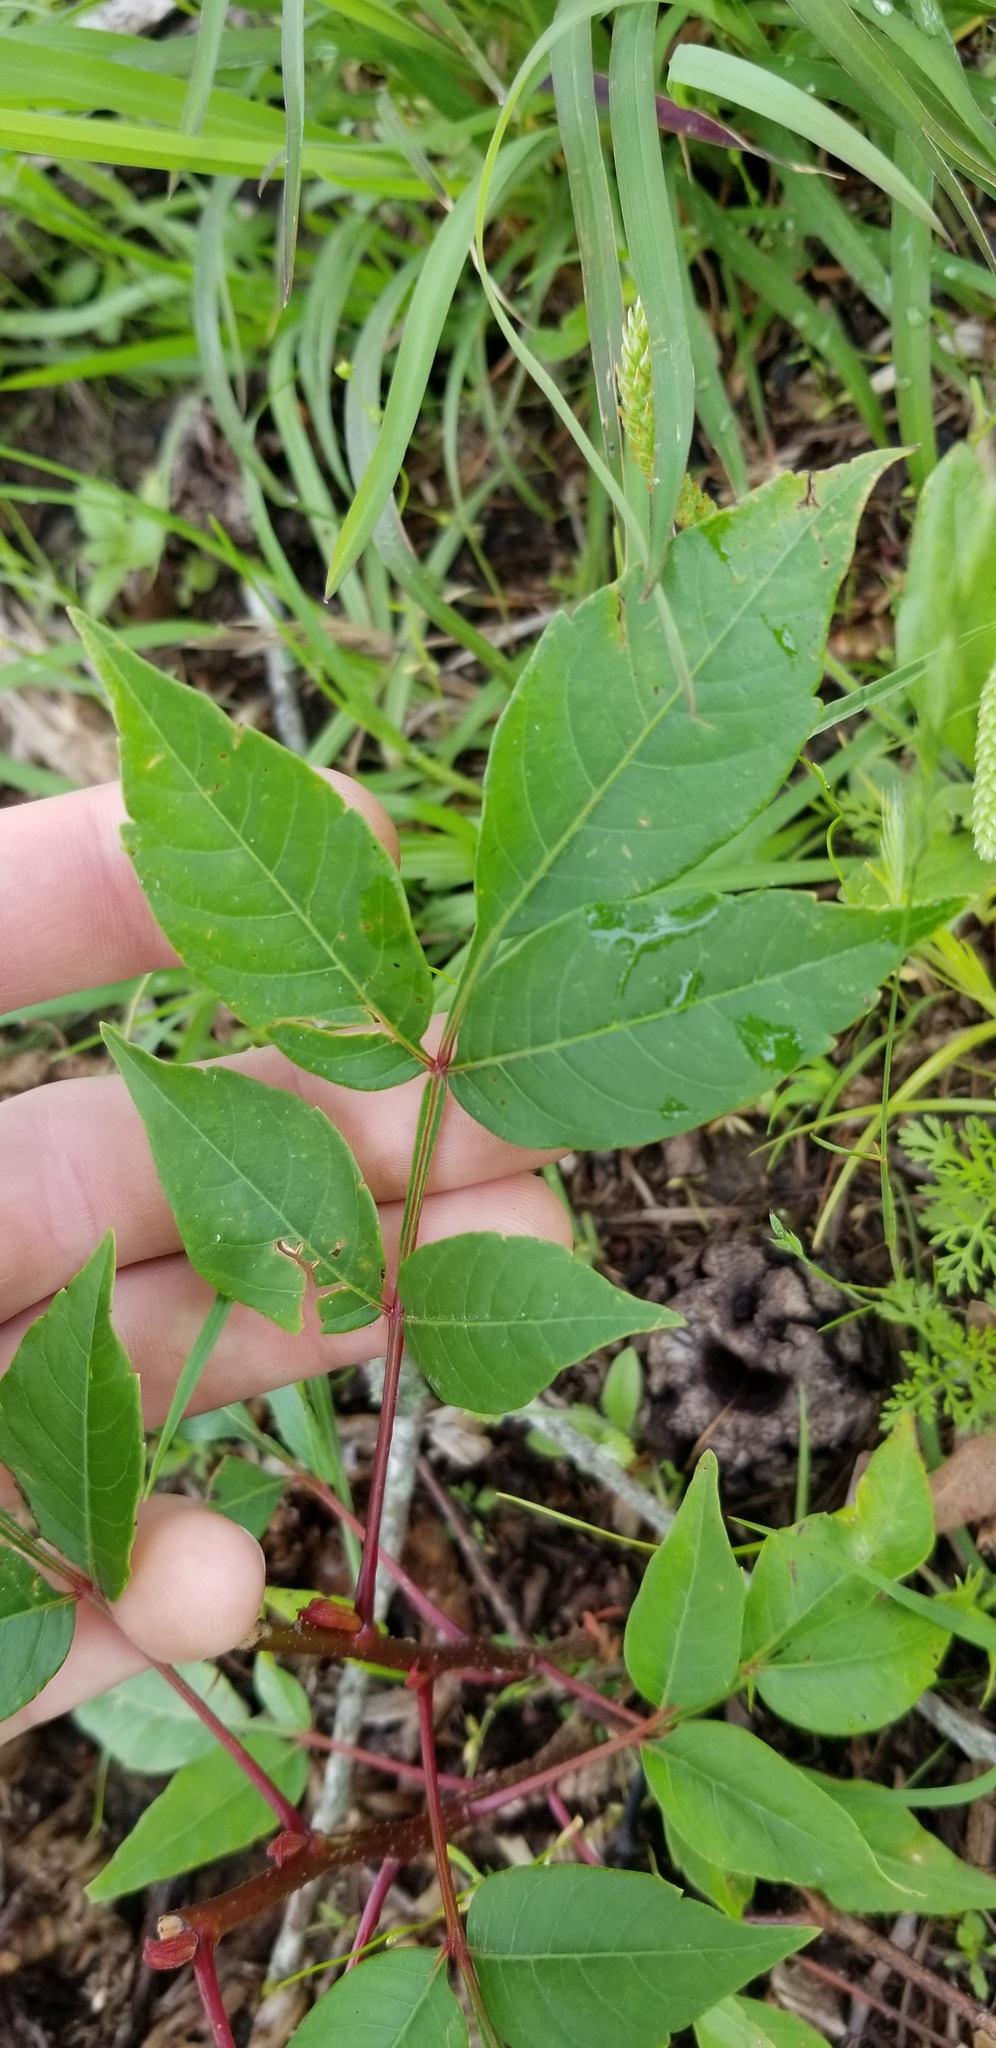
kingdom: Plantae
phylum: Tracheophyta
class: Magnoliopsida
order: Sapindales
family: Anacardiaceae
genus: Rhus
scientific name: Rhus copallina
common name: Shining sumac
